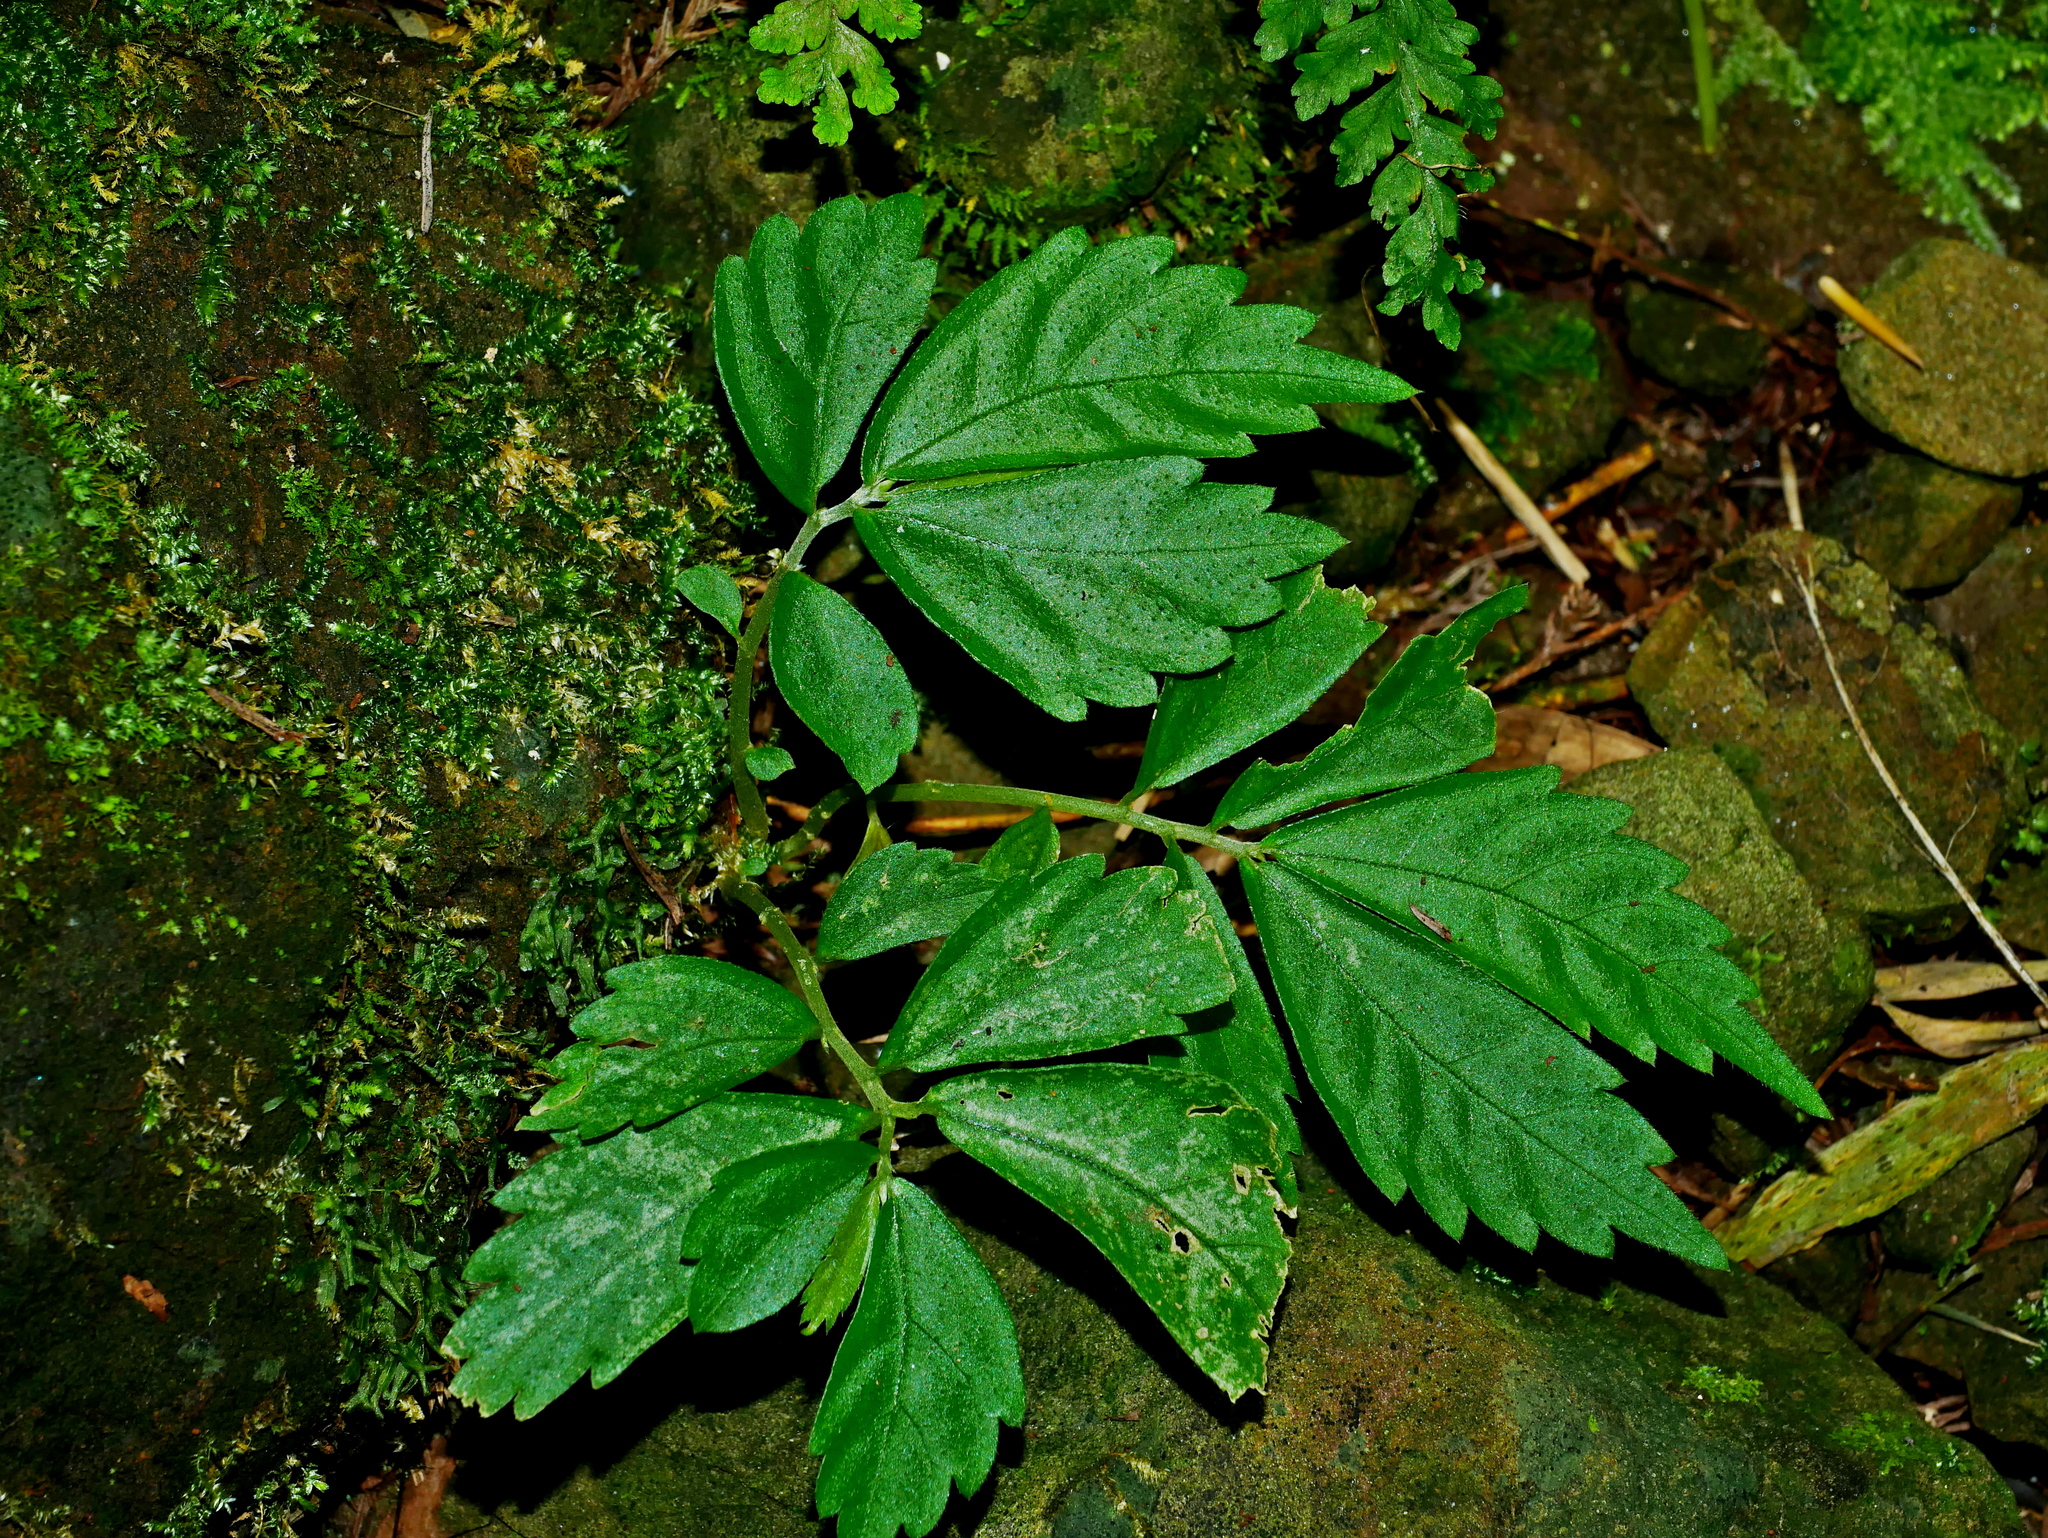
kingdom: Plantae
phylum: Tracheophyta
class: Magnoliopsida
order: Rosales
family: Urticaceae
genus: Elatostema
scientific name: Elatostema lineolatum
